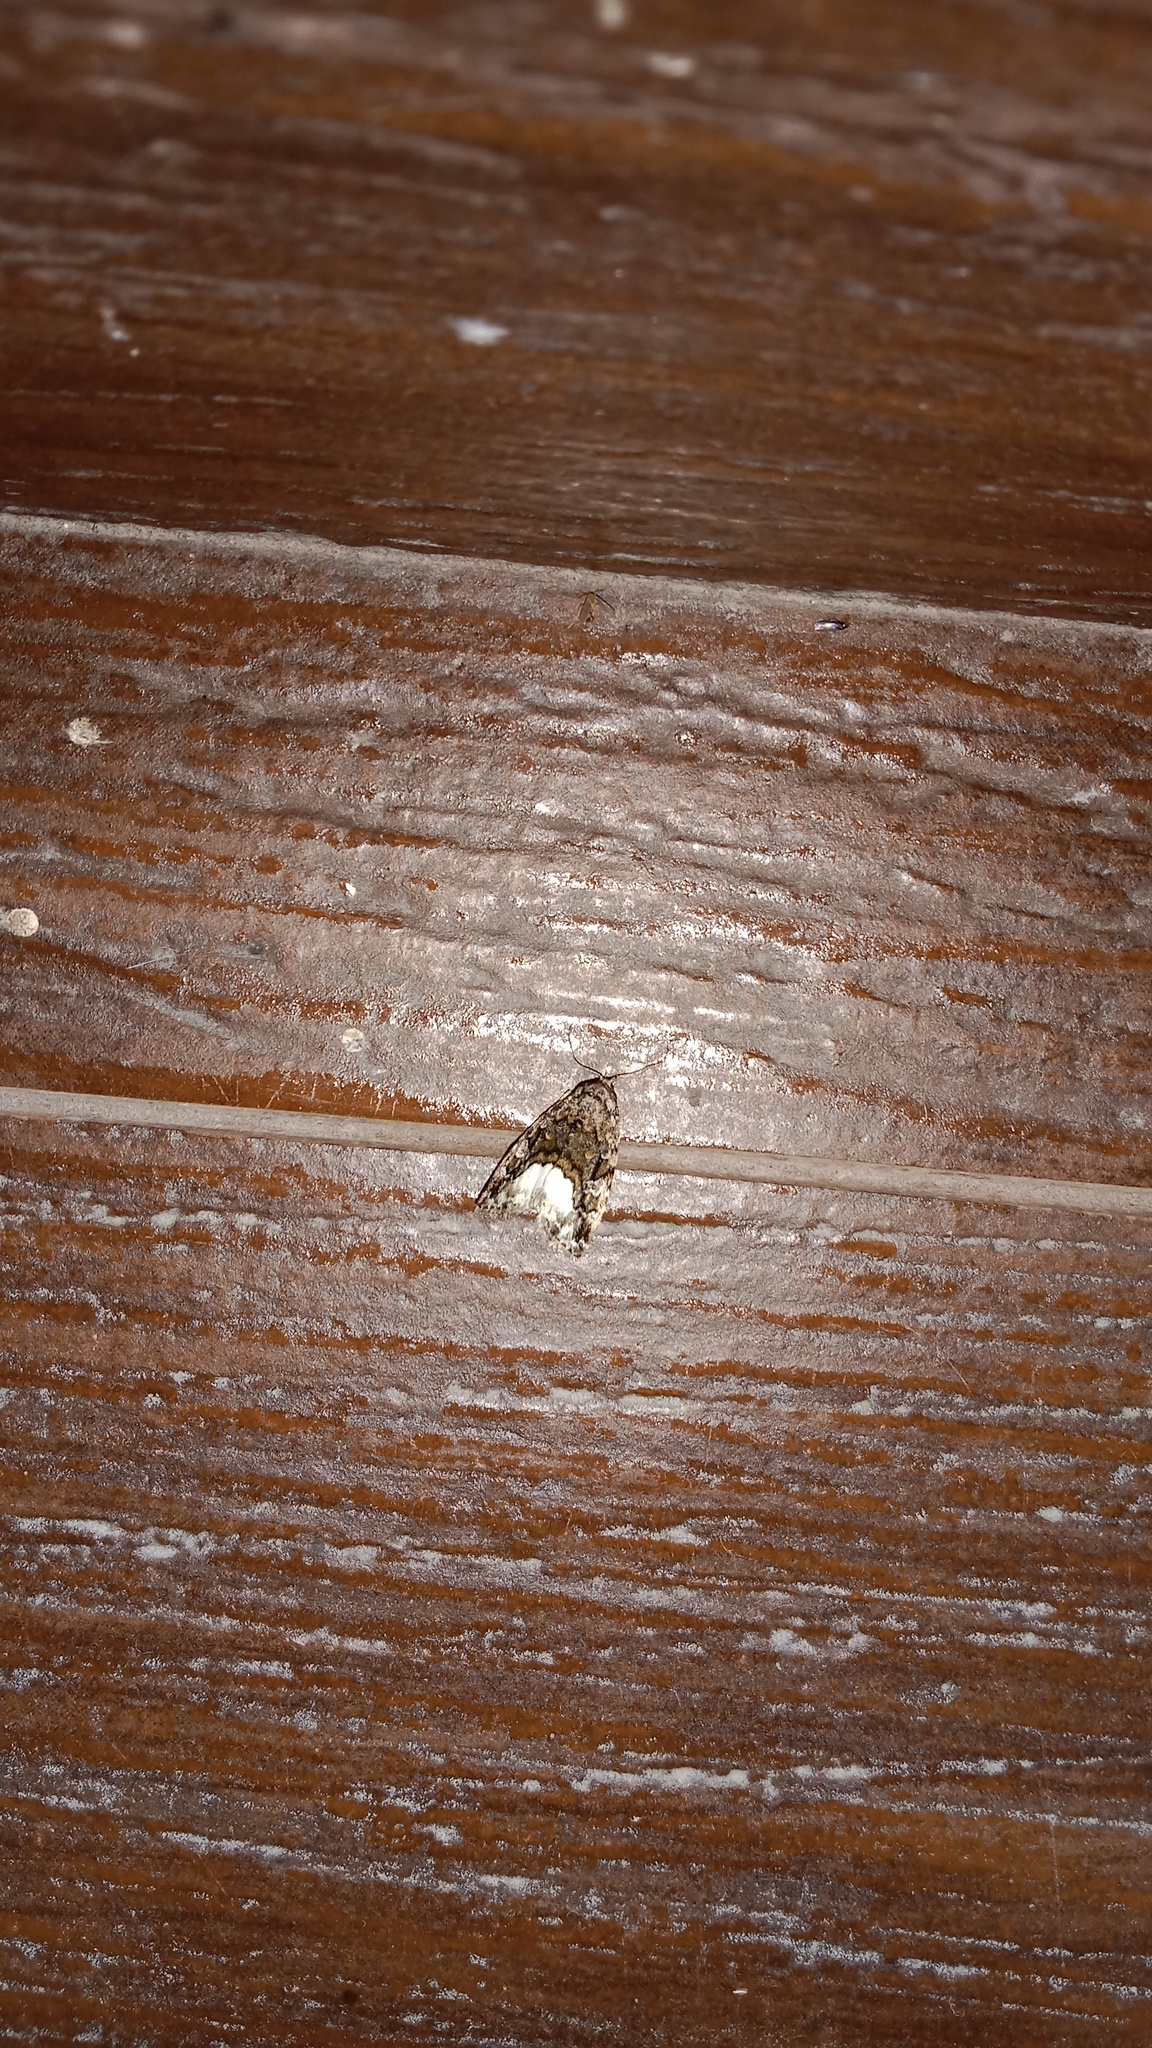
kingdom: Animalia
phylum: Arthropoda
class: Insecta
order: Lepidoptera
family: Noctuidae
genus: Deltote
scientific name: Deltote pygarga
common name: Marbled white spot
